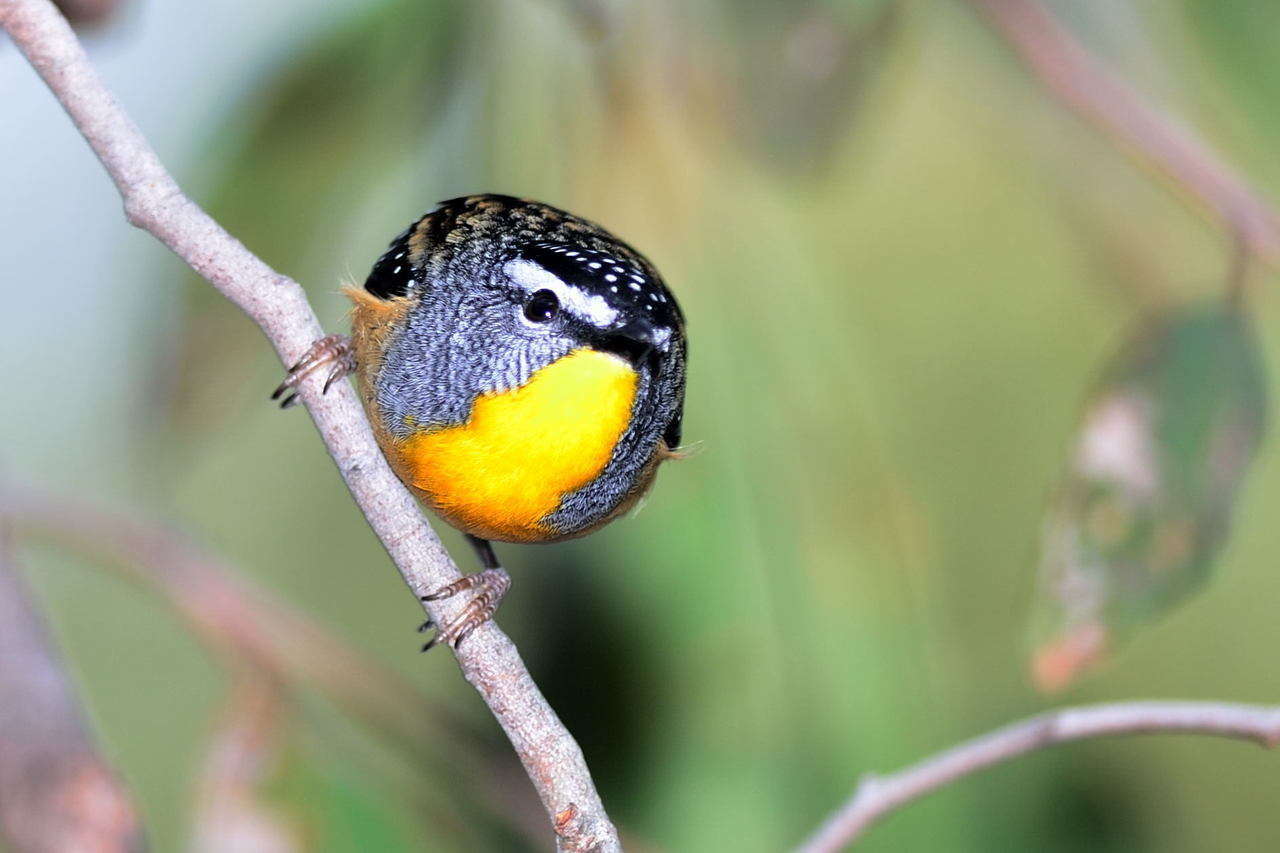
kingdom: Animalia
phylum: Chordata
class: Aves
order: Passeriformes
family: Pardalotidae
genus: Pardalotus
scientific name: Pardalotus punctatus
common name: Spotted pardalote
